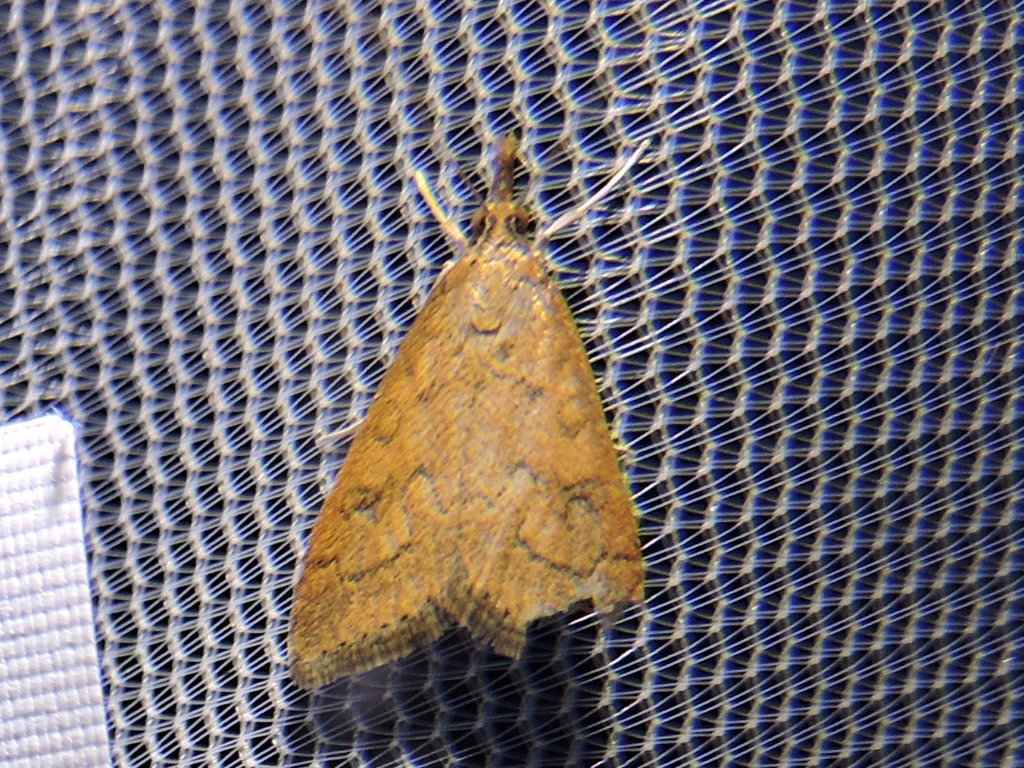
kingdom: Animalia
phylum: Arthropoda
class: Insecta
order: Lepidoptera
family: Crambidae
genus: Udea
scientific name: Udea rubigalis
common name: Celery leaftier moth
